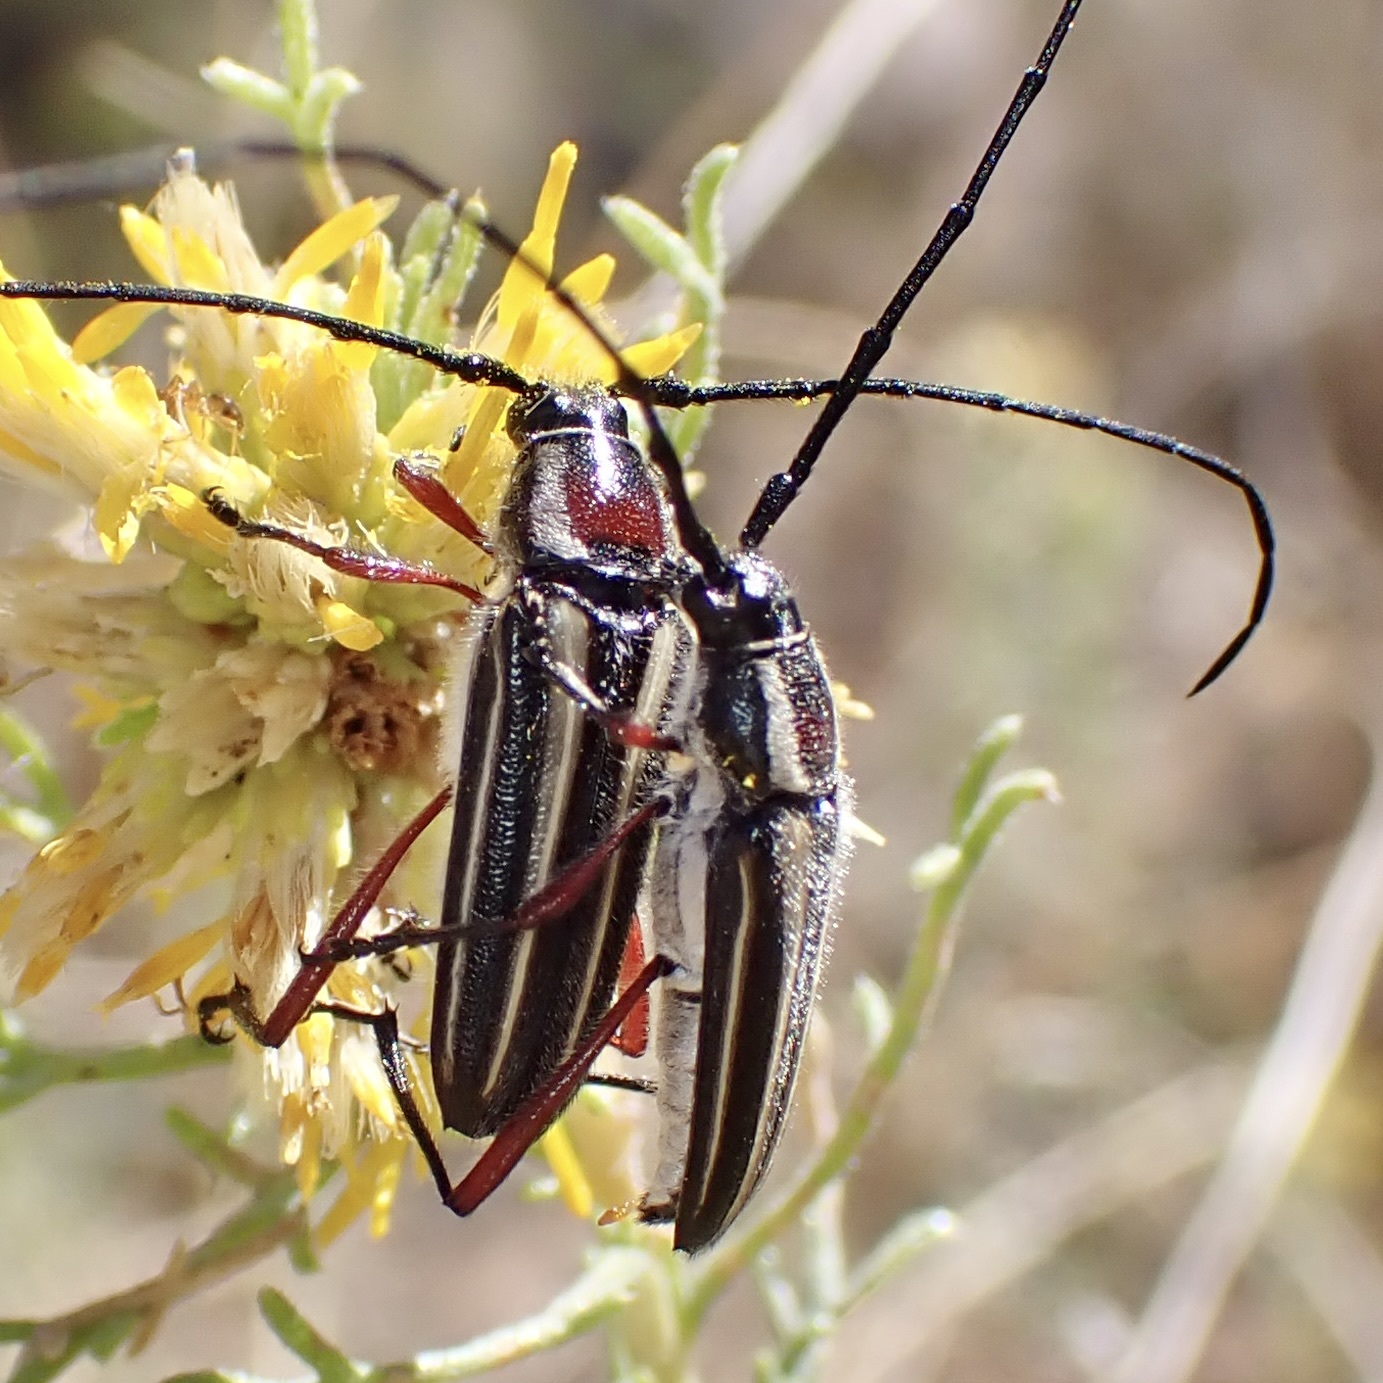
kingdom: Animalia
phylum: Arthropoda
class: Insecta
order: Coleoptera
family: Cerambycidae
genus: Sphaenothecus
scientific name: Sphaenothecus bilineatus
